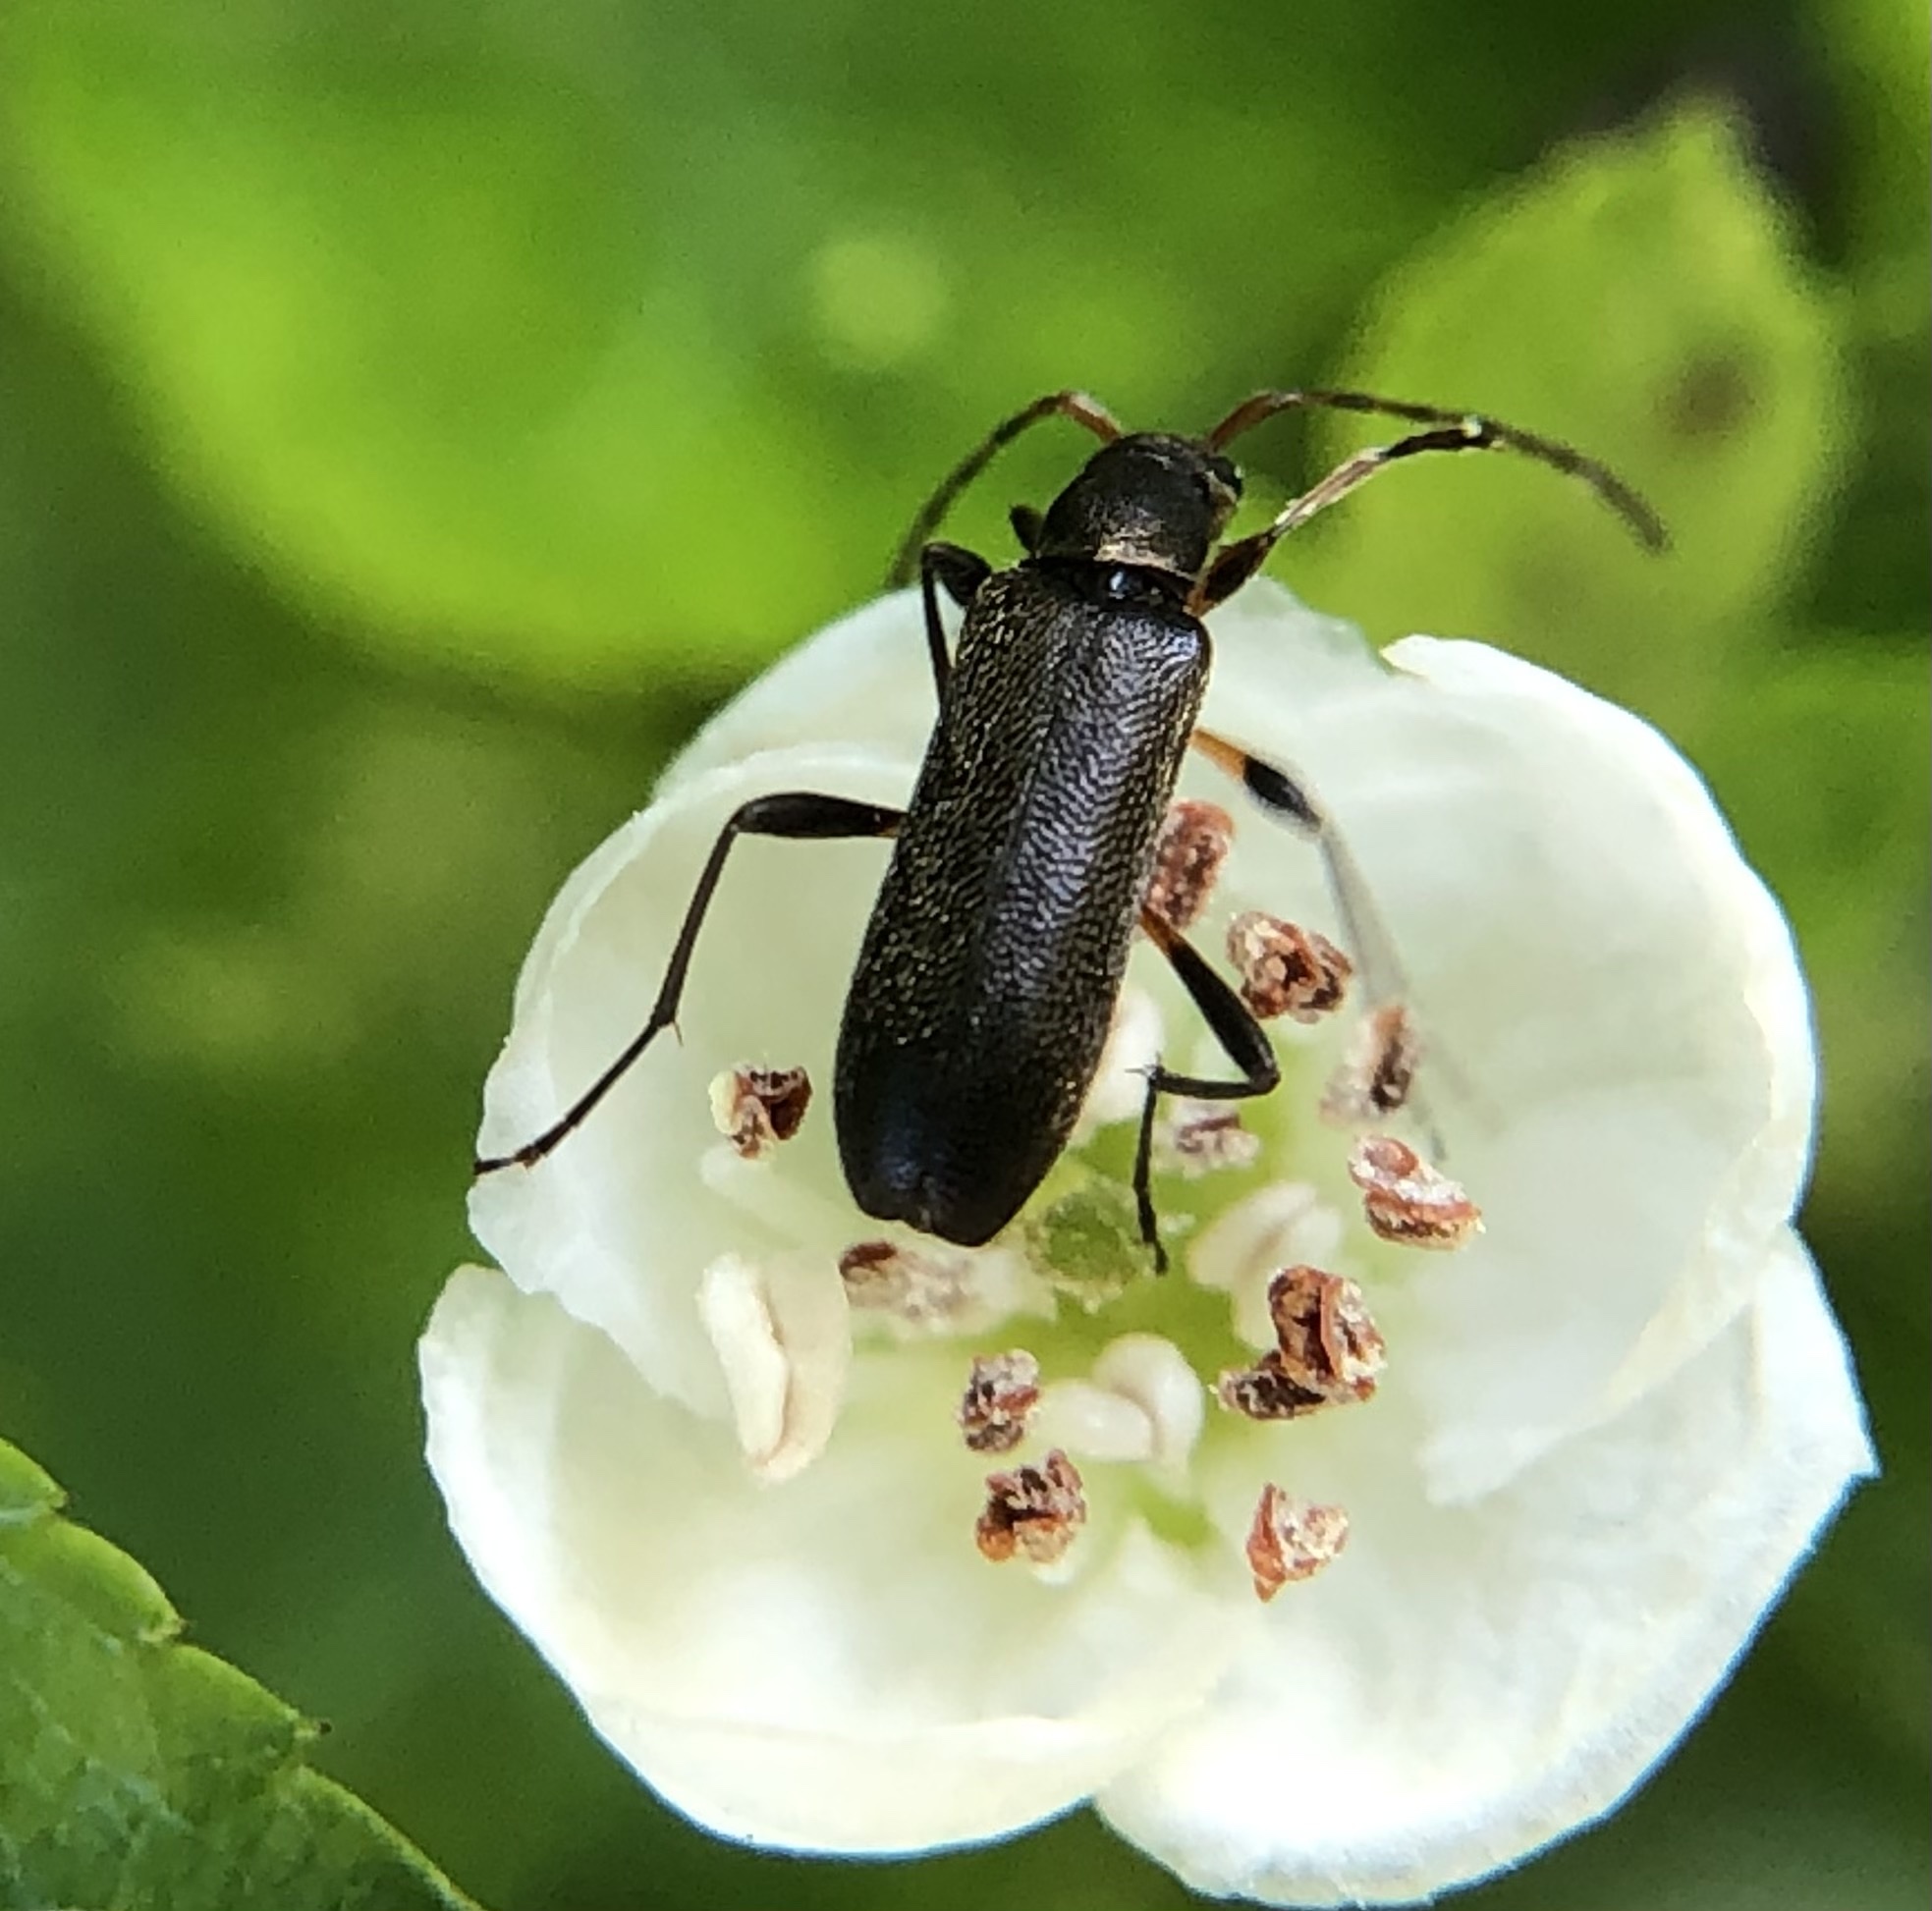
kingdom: Animalia
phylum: Arthropoda
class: Insecta
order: Coleoptera
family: Cerambycidae
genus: Grammoptera
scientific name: Grammoptera ruficornis
